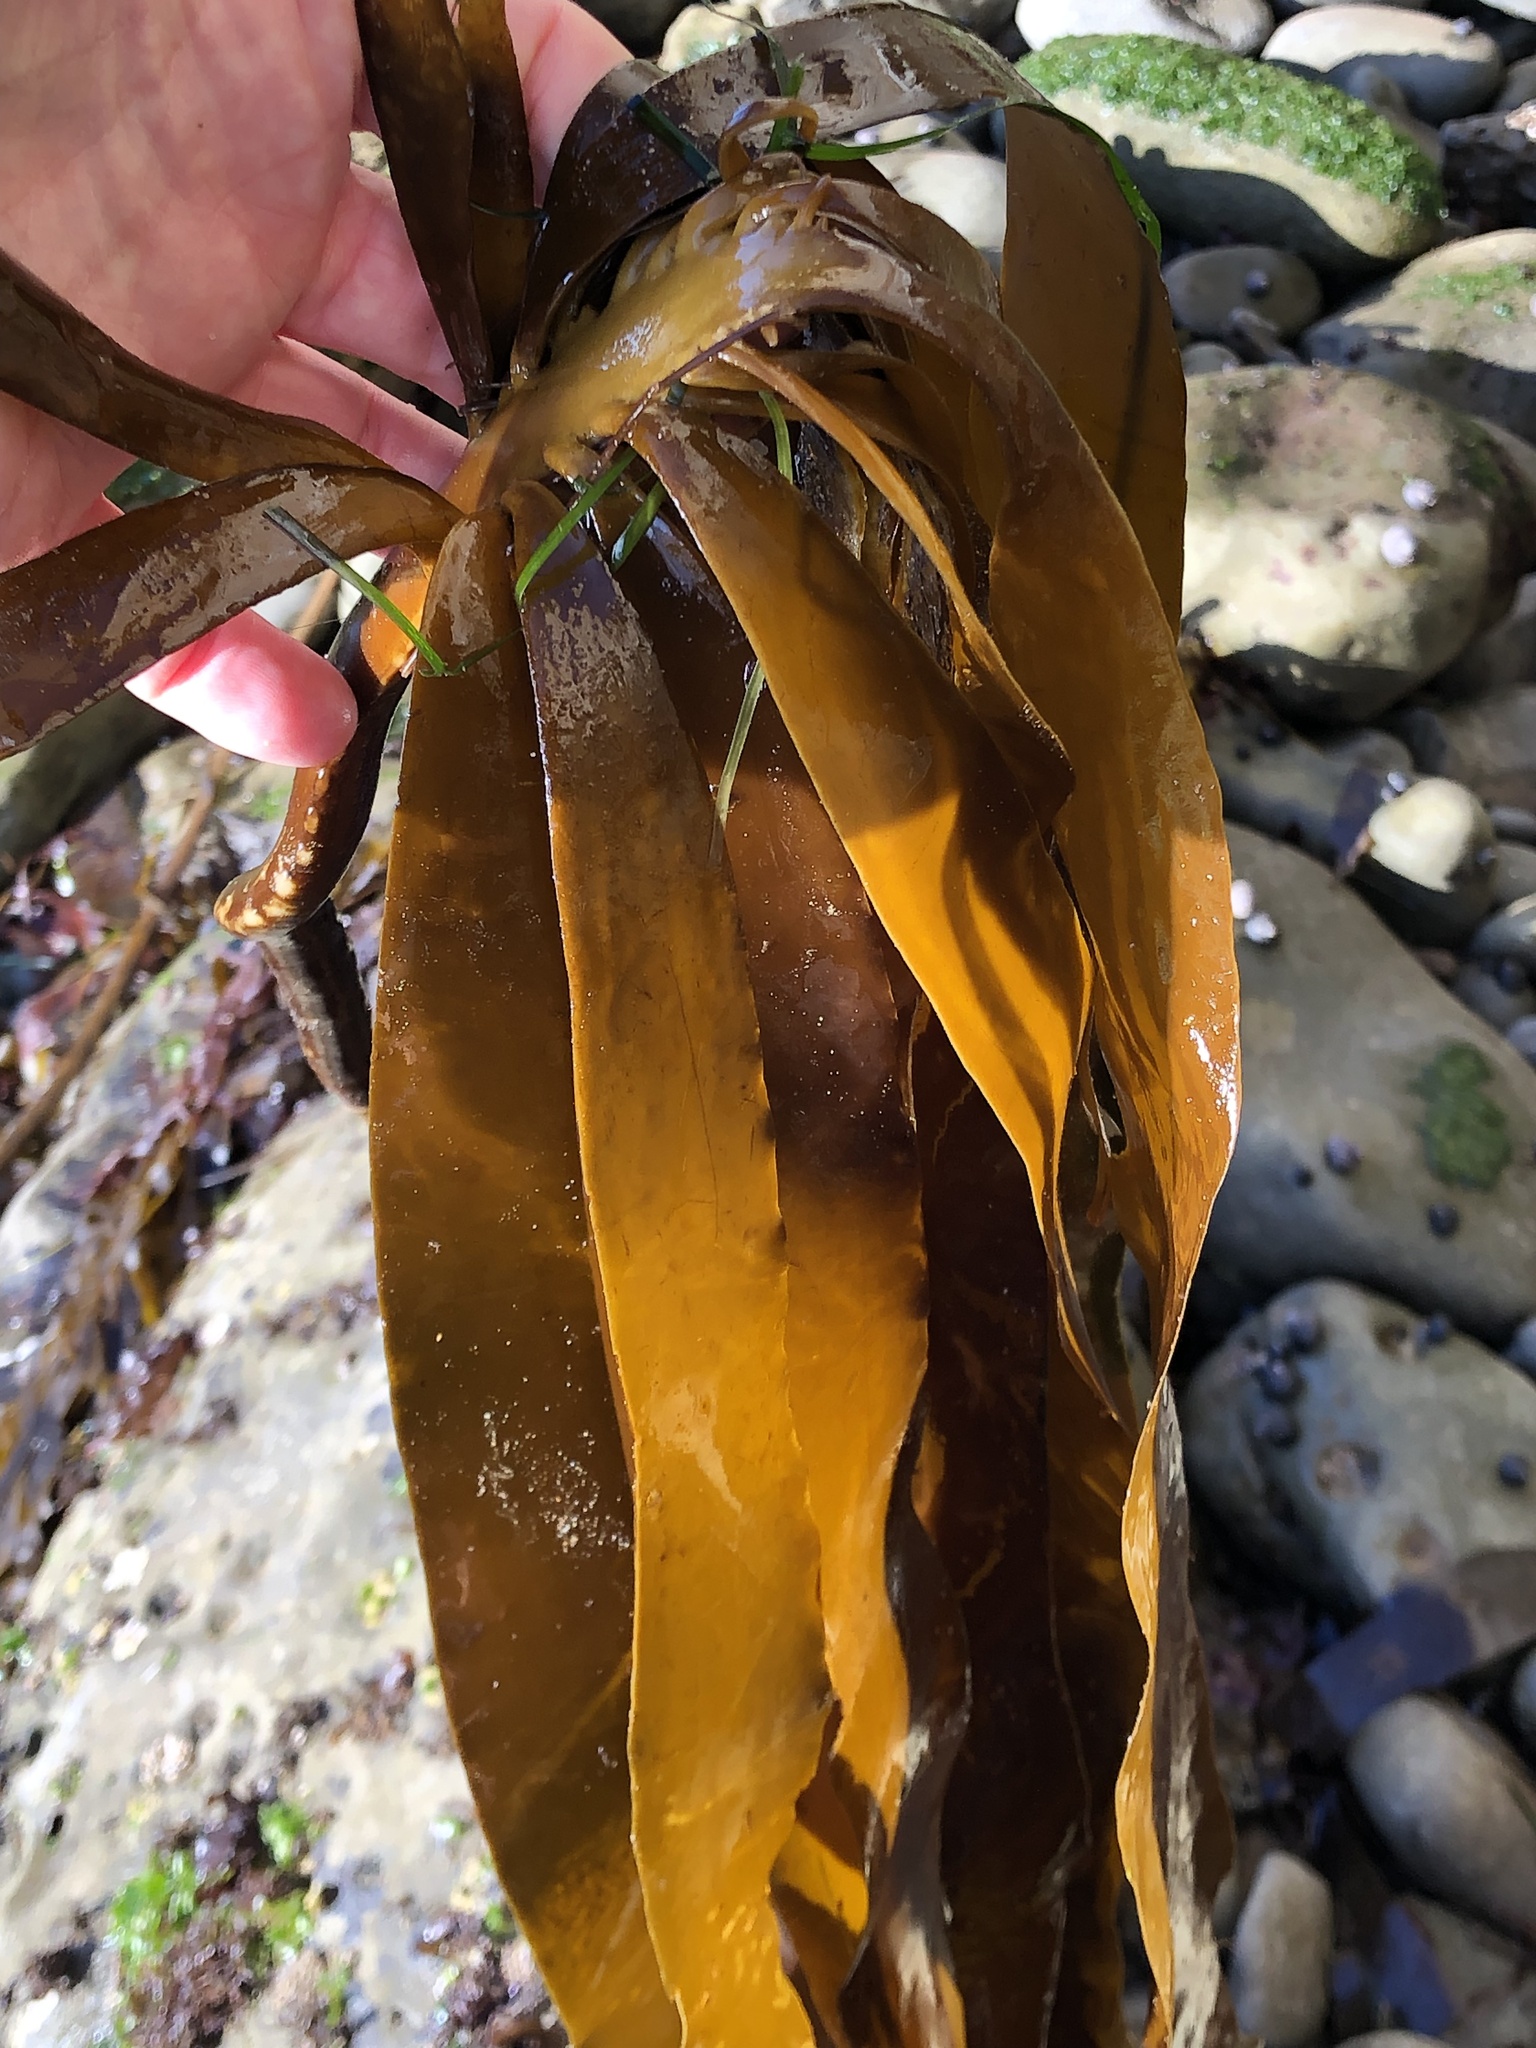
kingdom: Chromista
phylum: Ochrophyta
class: Phaeophyceae
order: Laminariales
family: Alariaceae
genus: Pterygophora
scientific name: Pterygophora californica
